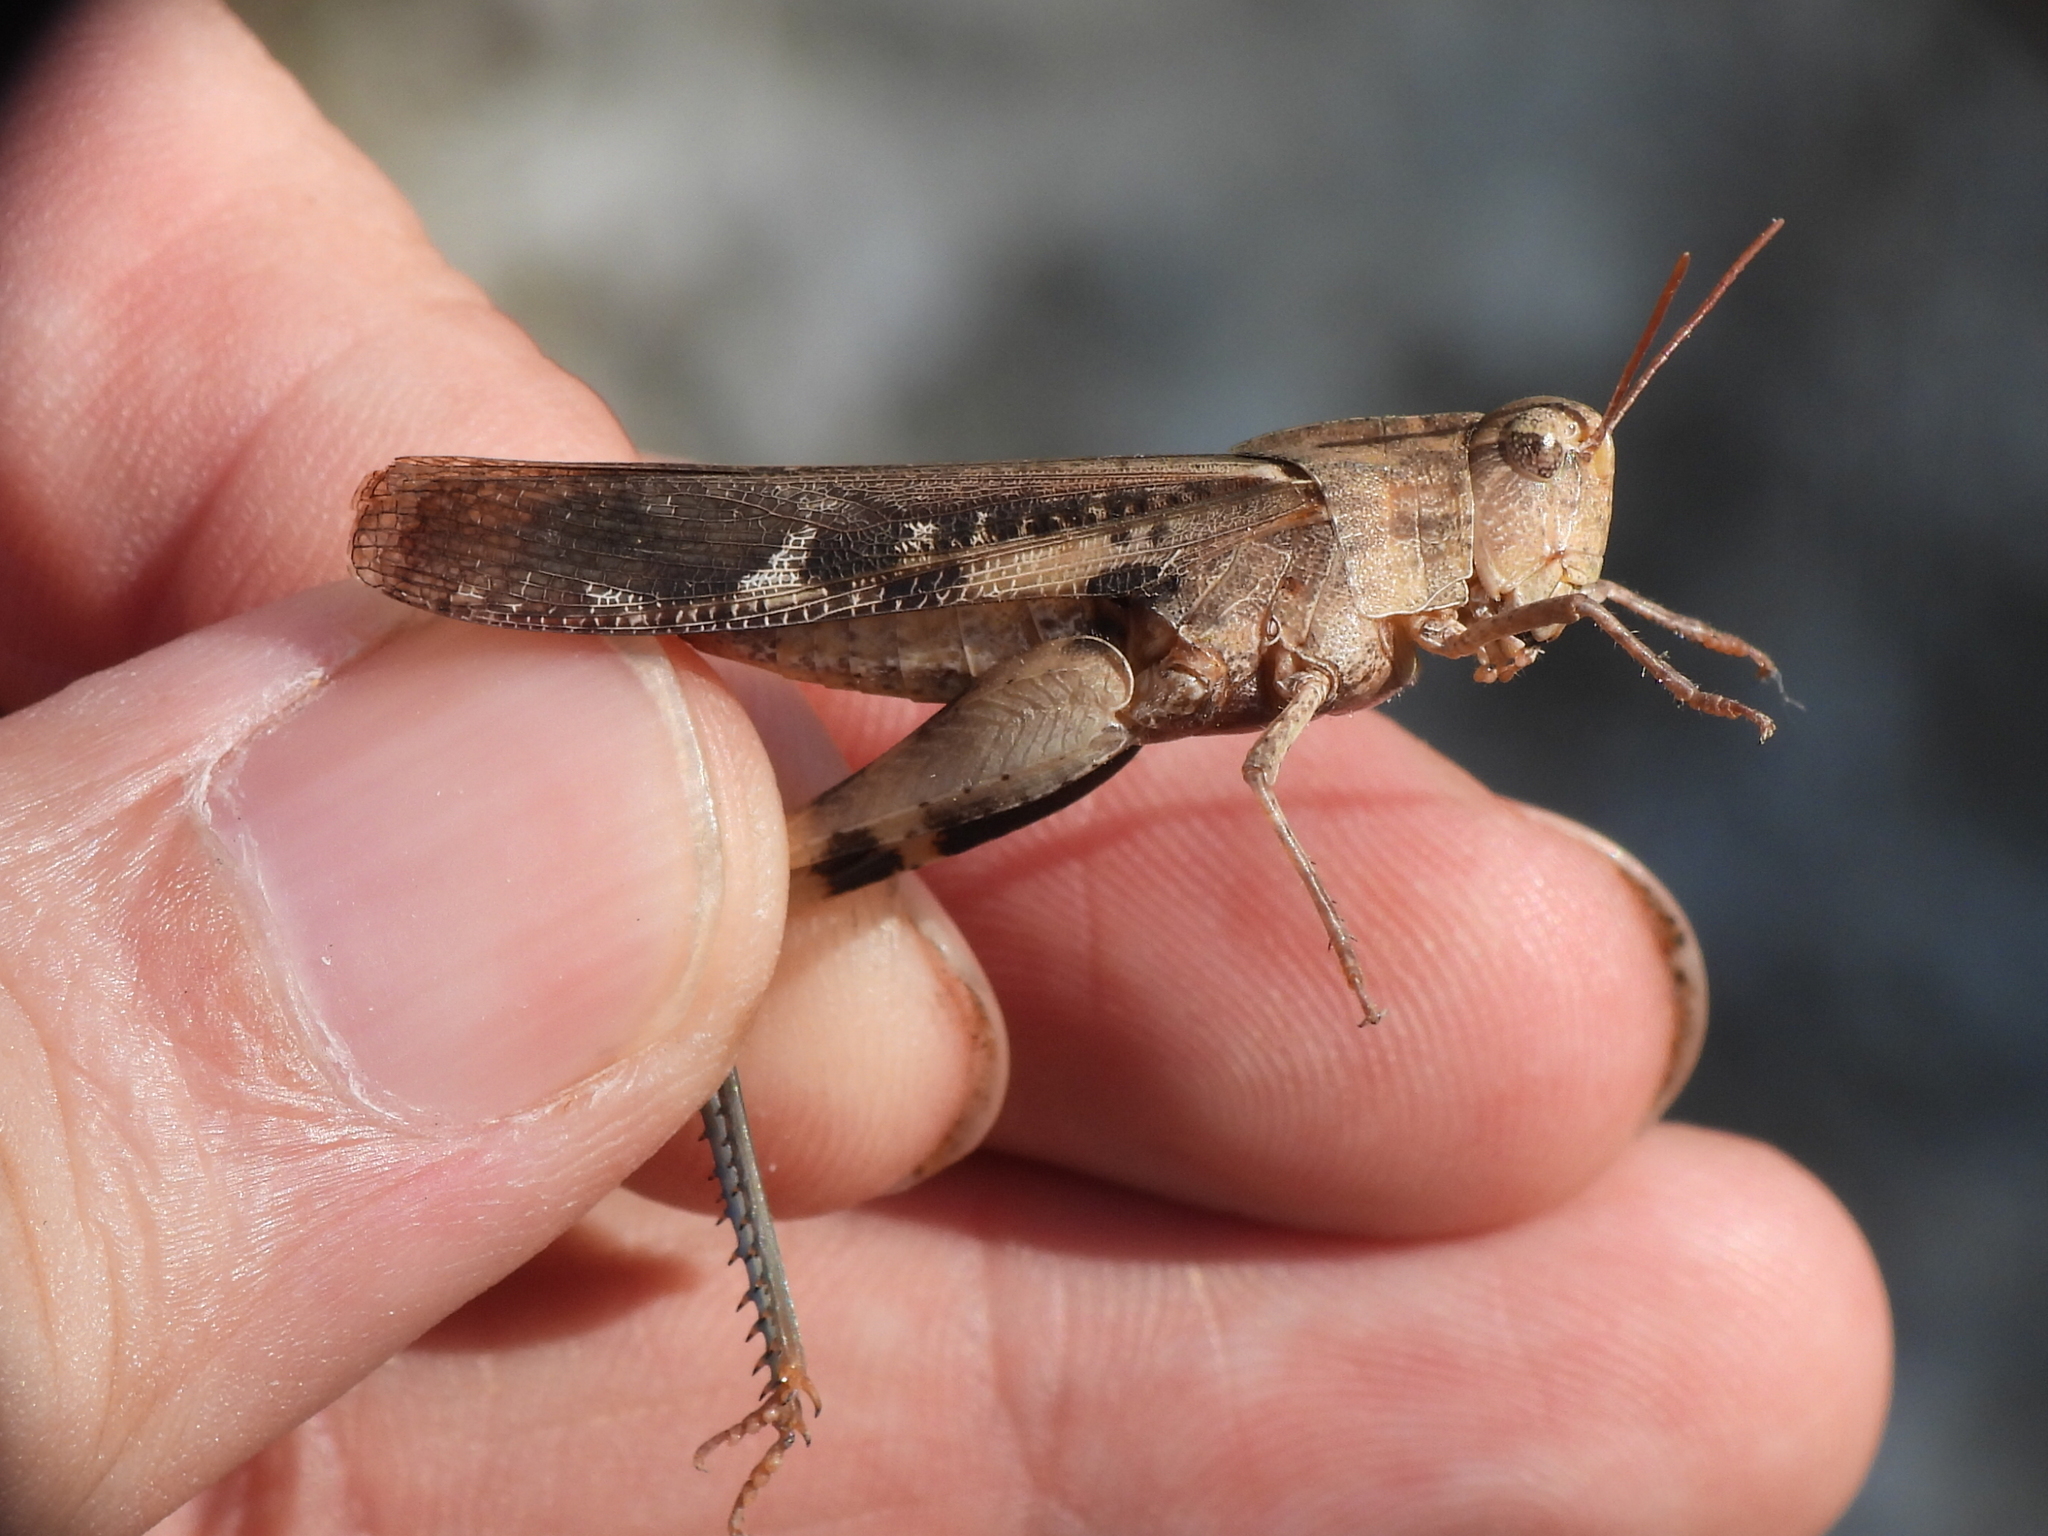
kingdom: Animalia
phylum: Arthropoda
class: Insecta
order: Orthoptera
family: Acrididae
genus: Chortophaga
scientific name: Chortophaga viridifasciata
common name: Green-striped grasshopper
